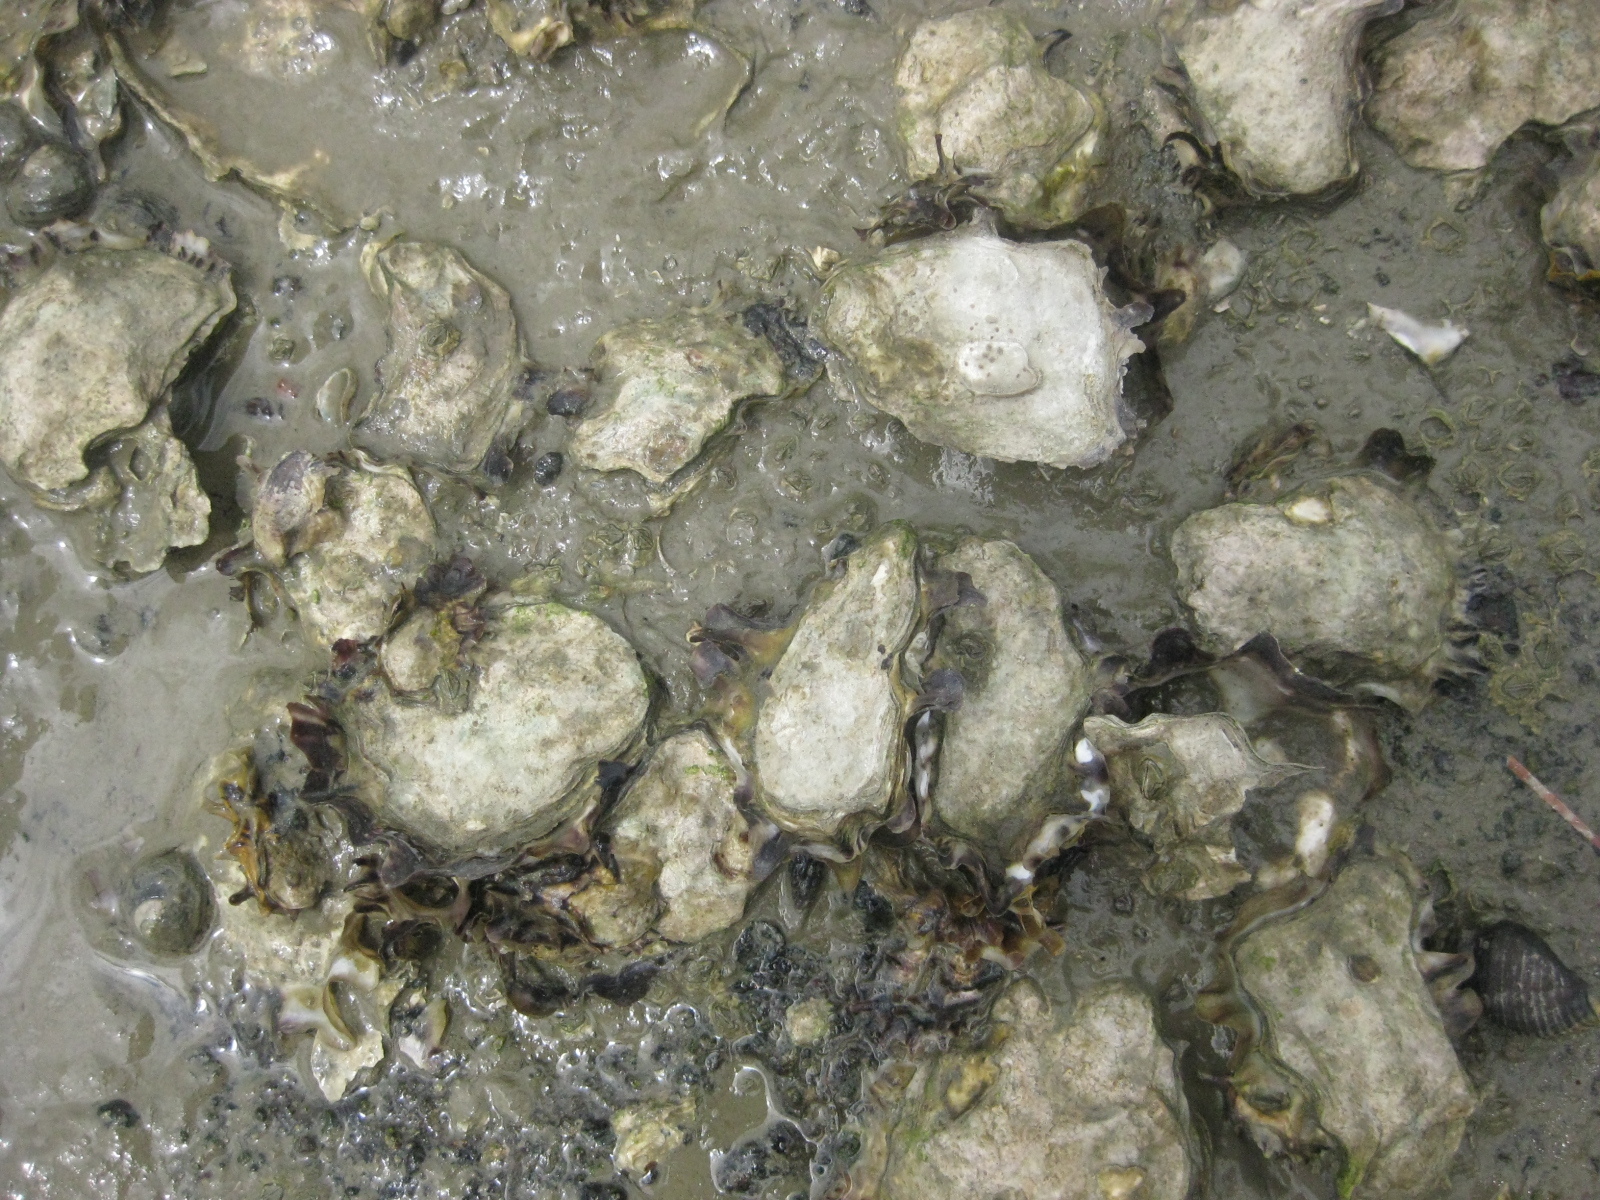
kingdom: Animalia
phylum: Mollusca
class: Bivalvia
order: Ostreida
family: Ostreidae
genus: Saccostrea
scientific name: Saccostrea glomerata
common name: Sydney cupped oyster
